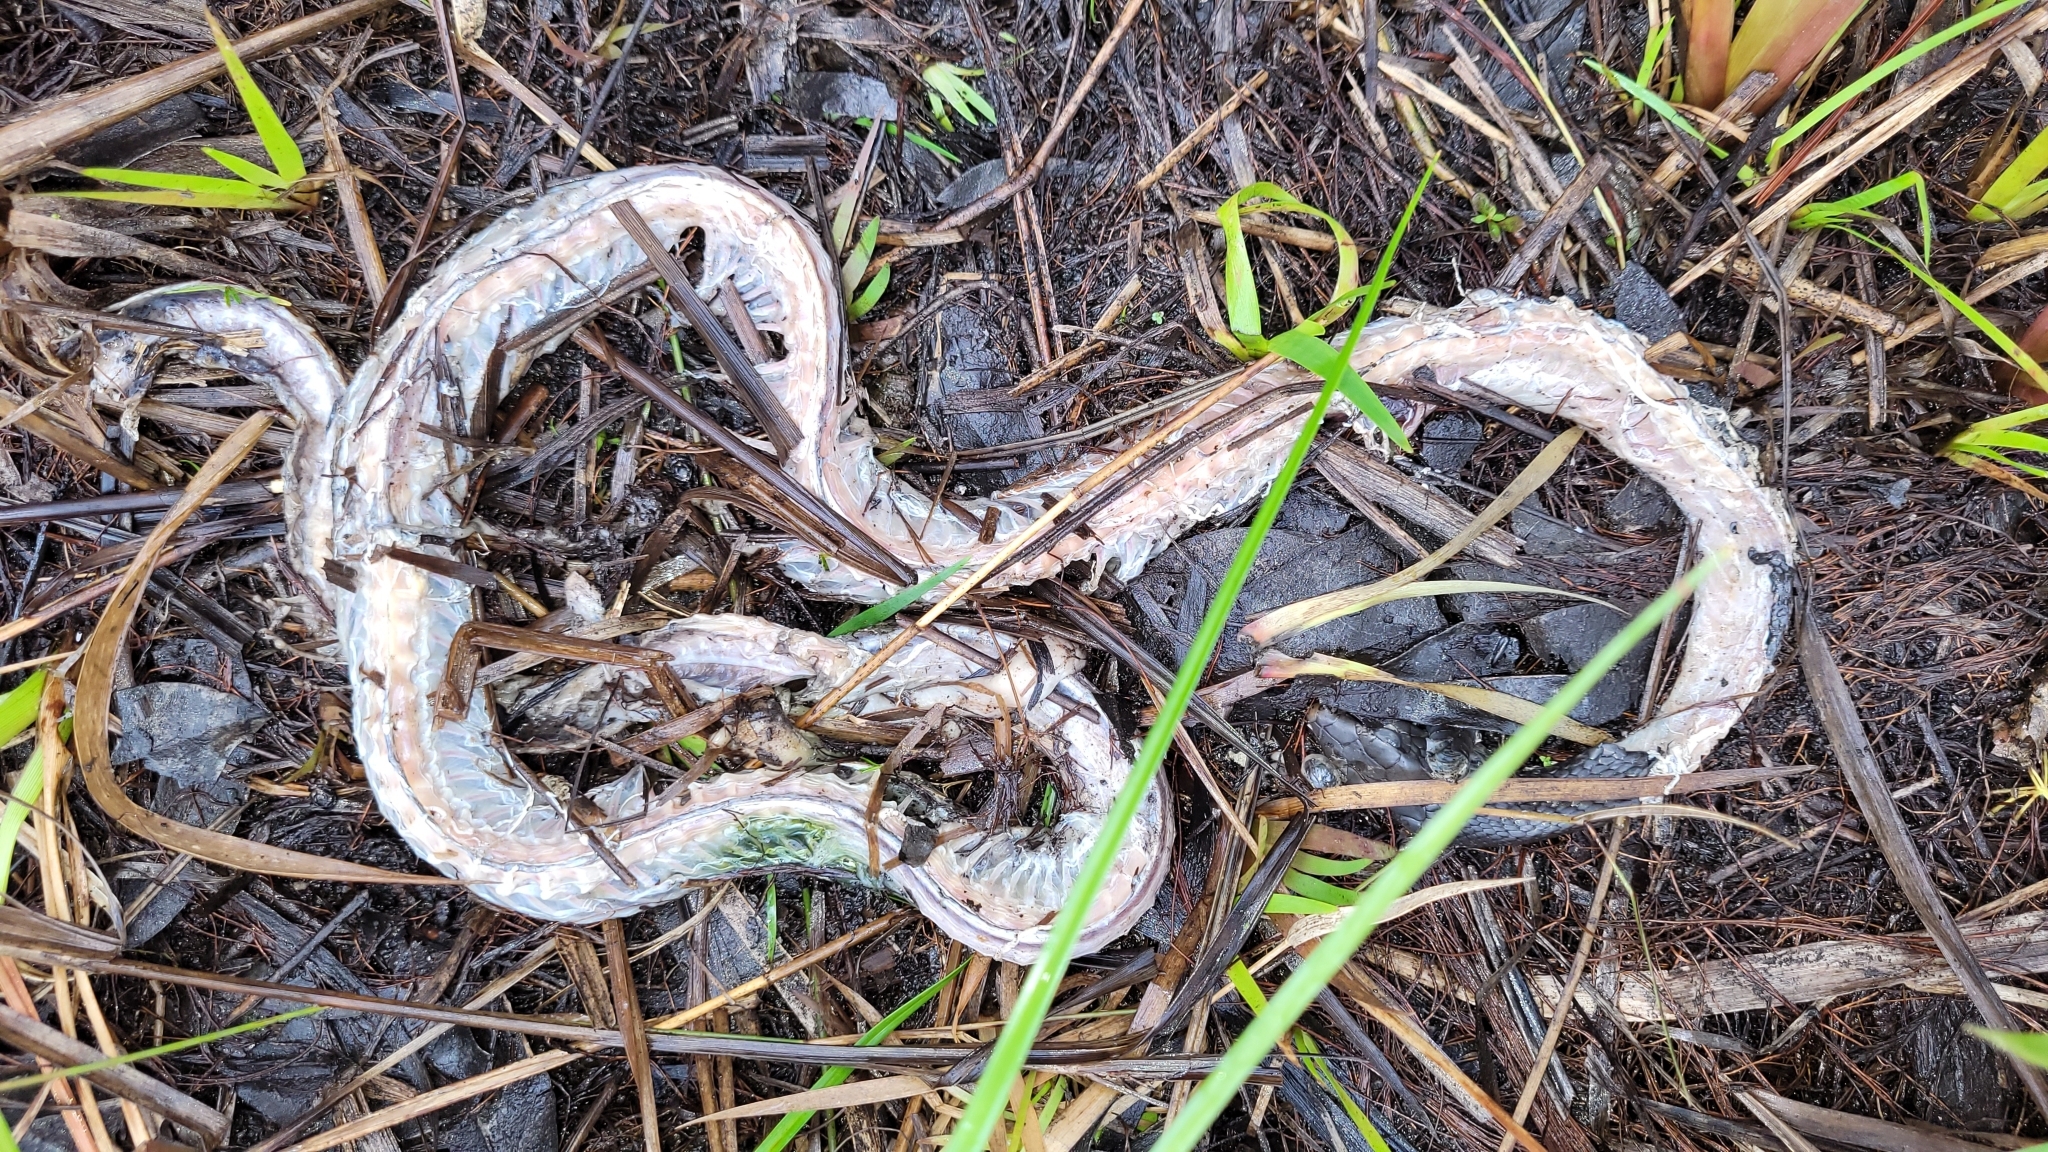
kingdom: Animalia
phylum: Chordata
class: Squamata
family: Colubridae
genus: Coluber
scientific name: Coluber constrictor
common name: Eastern racer
